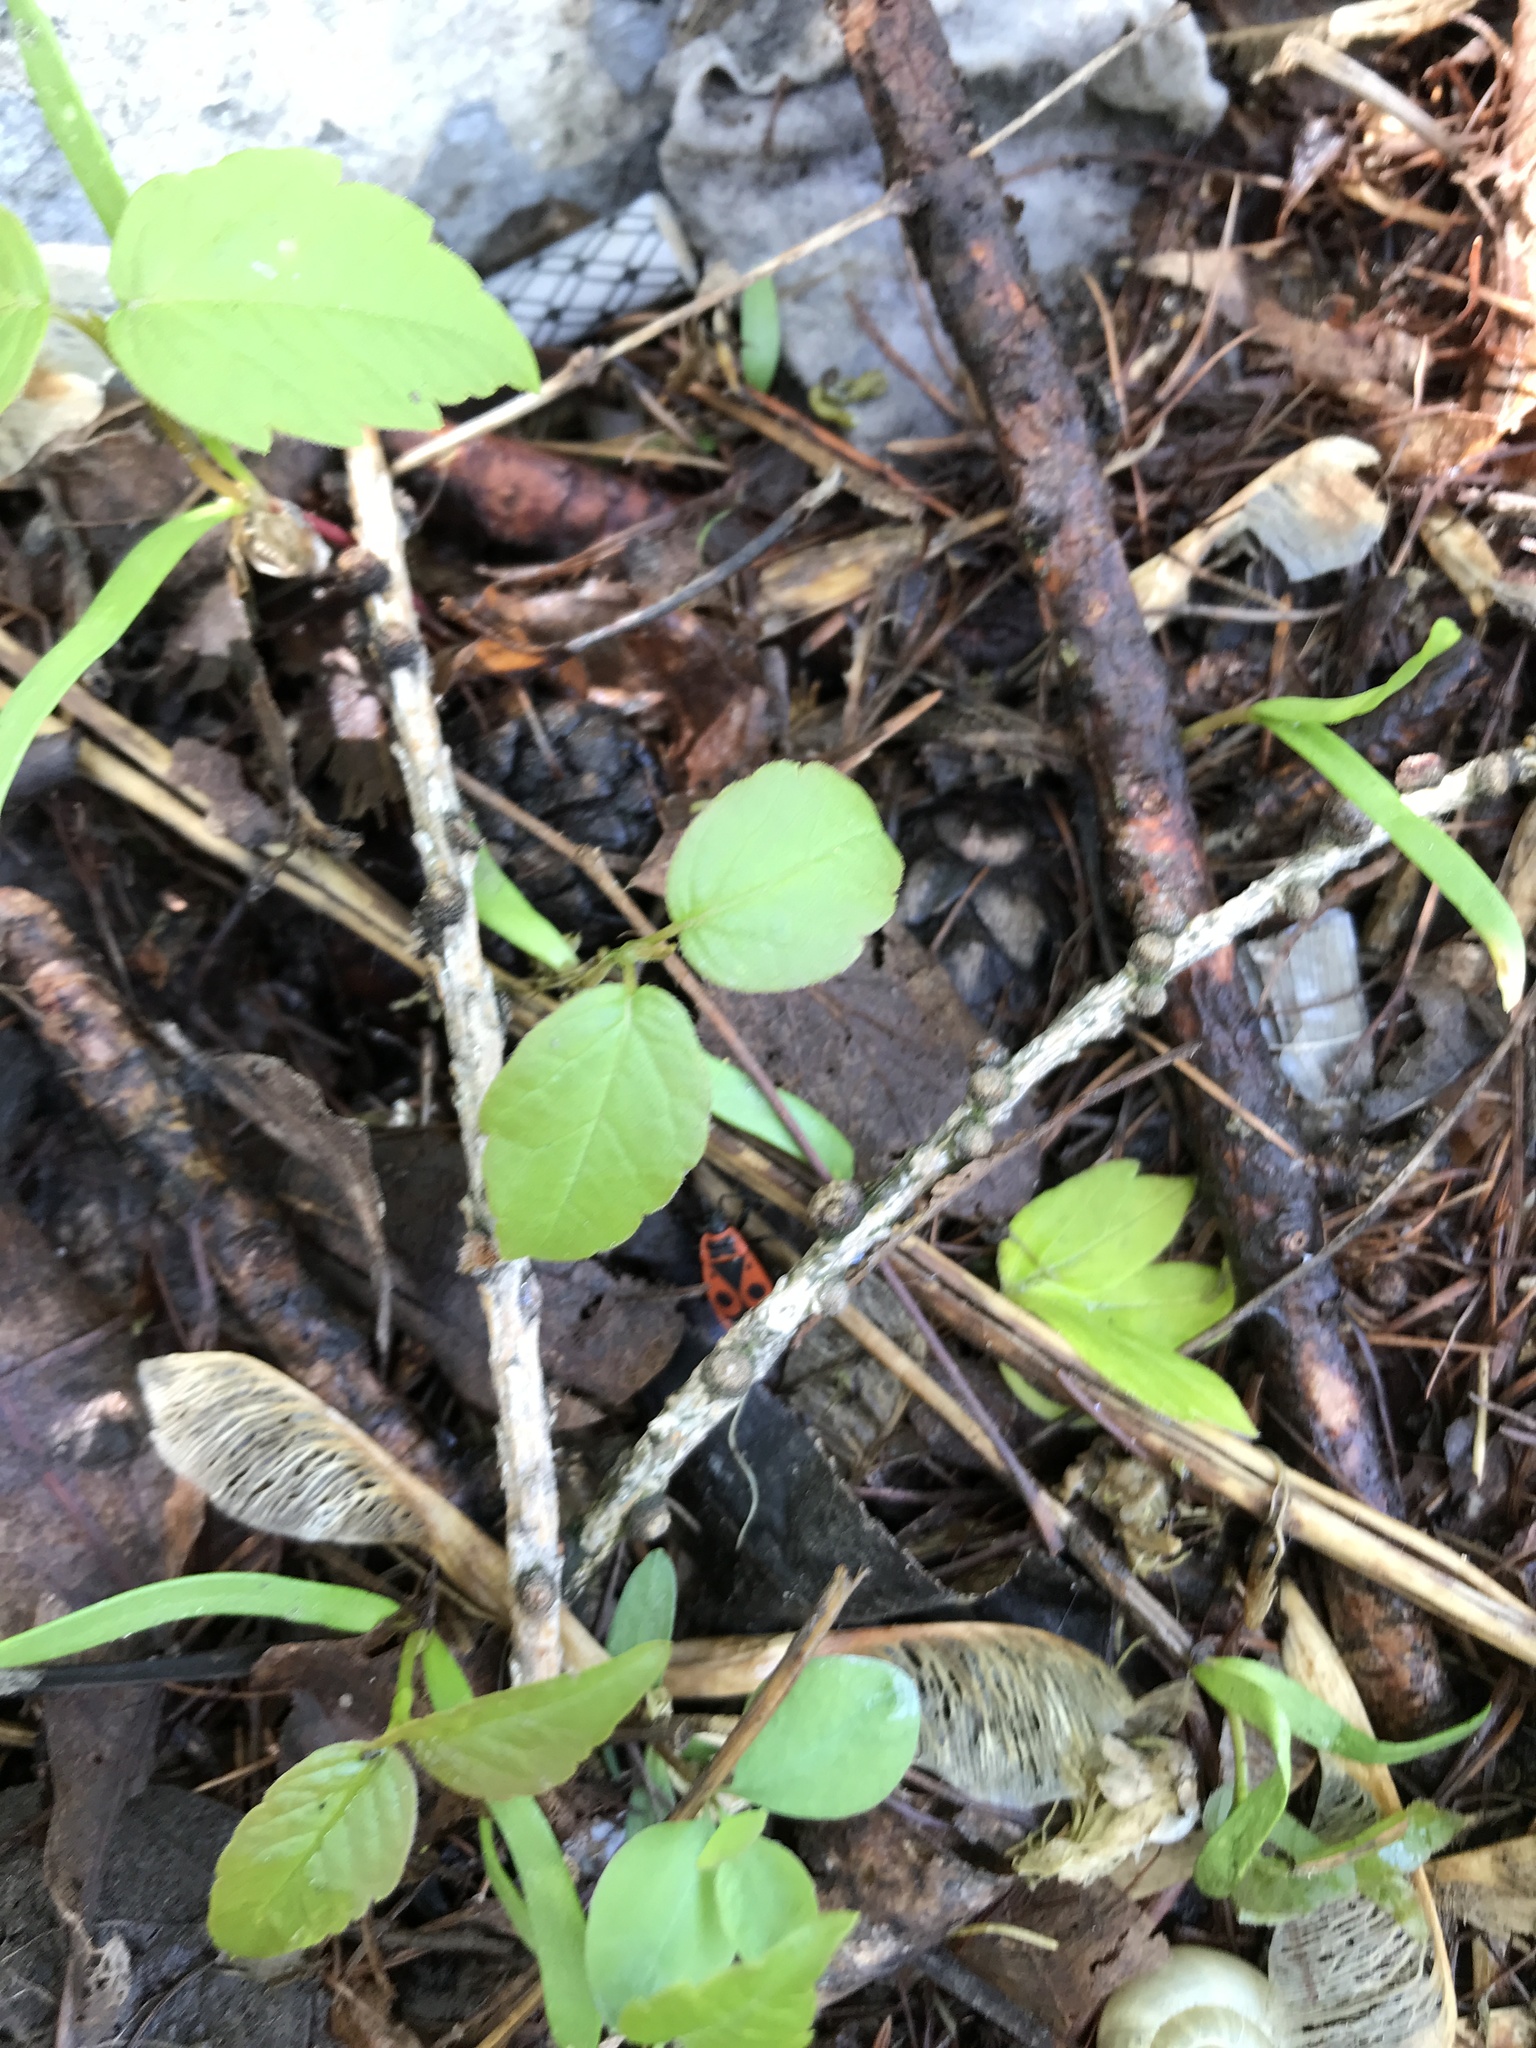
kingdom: Animalia
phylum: Arthropoda
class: Insecta
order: Hemiptera
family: Pyrrhocoridae
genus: Pyrrhocoris
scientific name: Pyrrhocoris apterus
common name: Firebug
